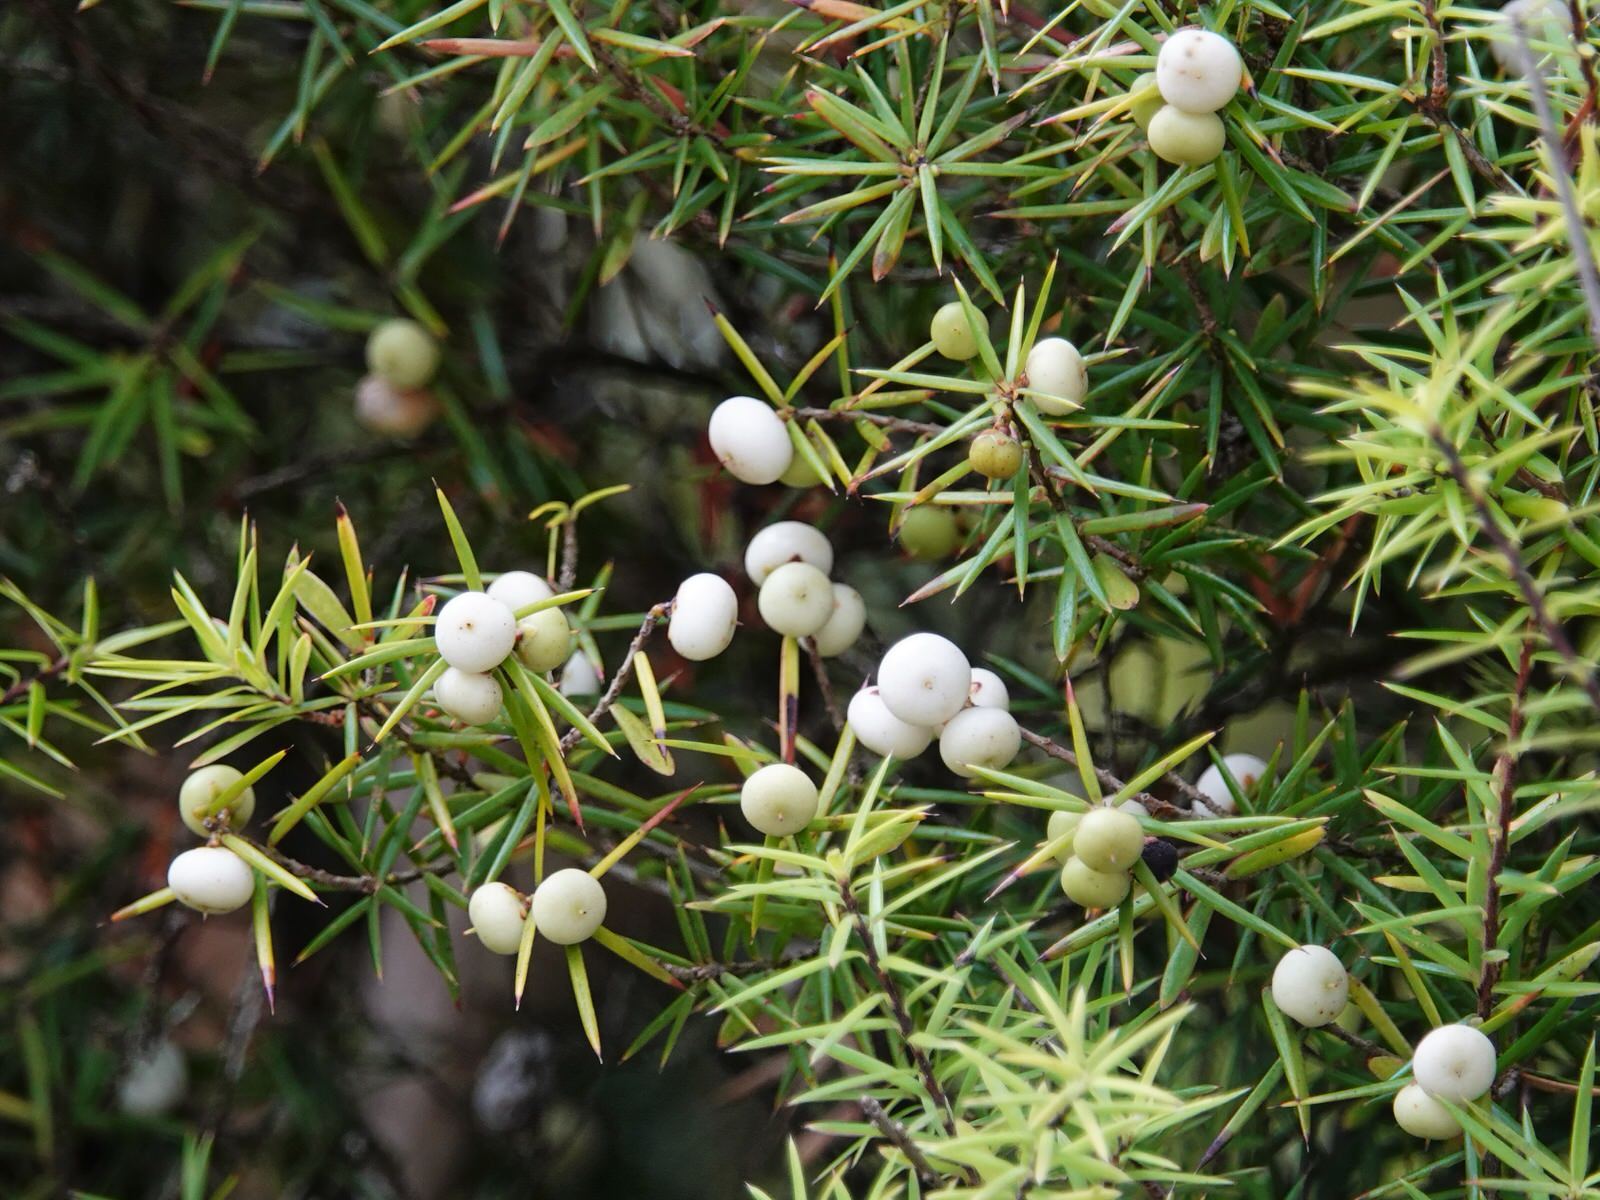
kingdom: Plantae
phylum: Tracheophyta
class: Magnoliopsida
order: Ericales
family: Ericaceae
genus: Leptecophylla
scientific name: Leptecophylla juniperina
